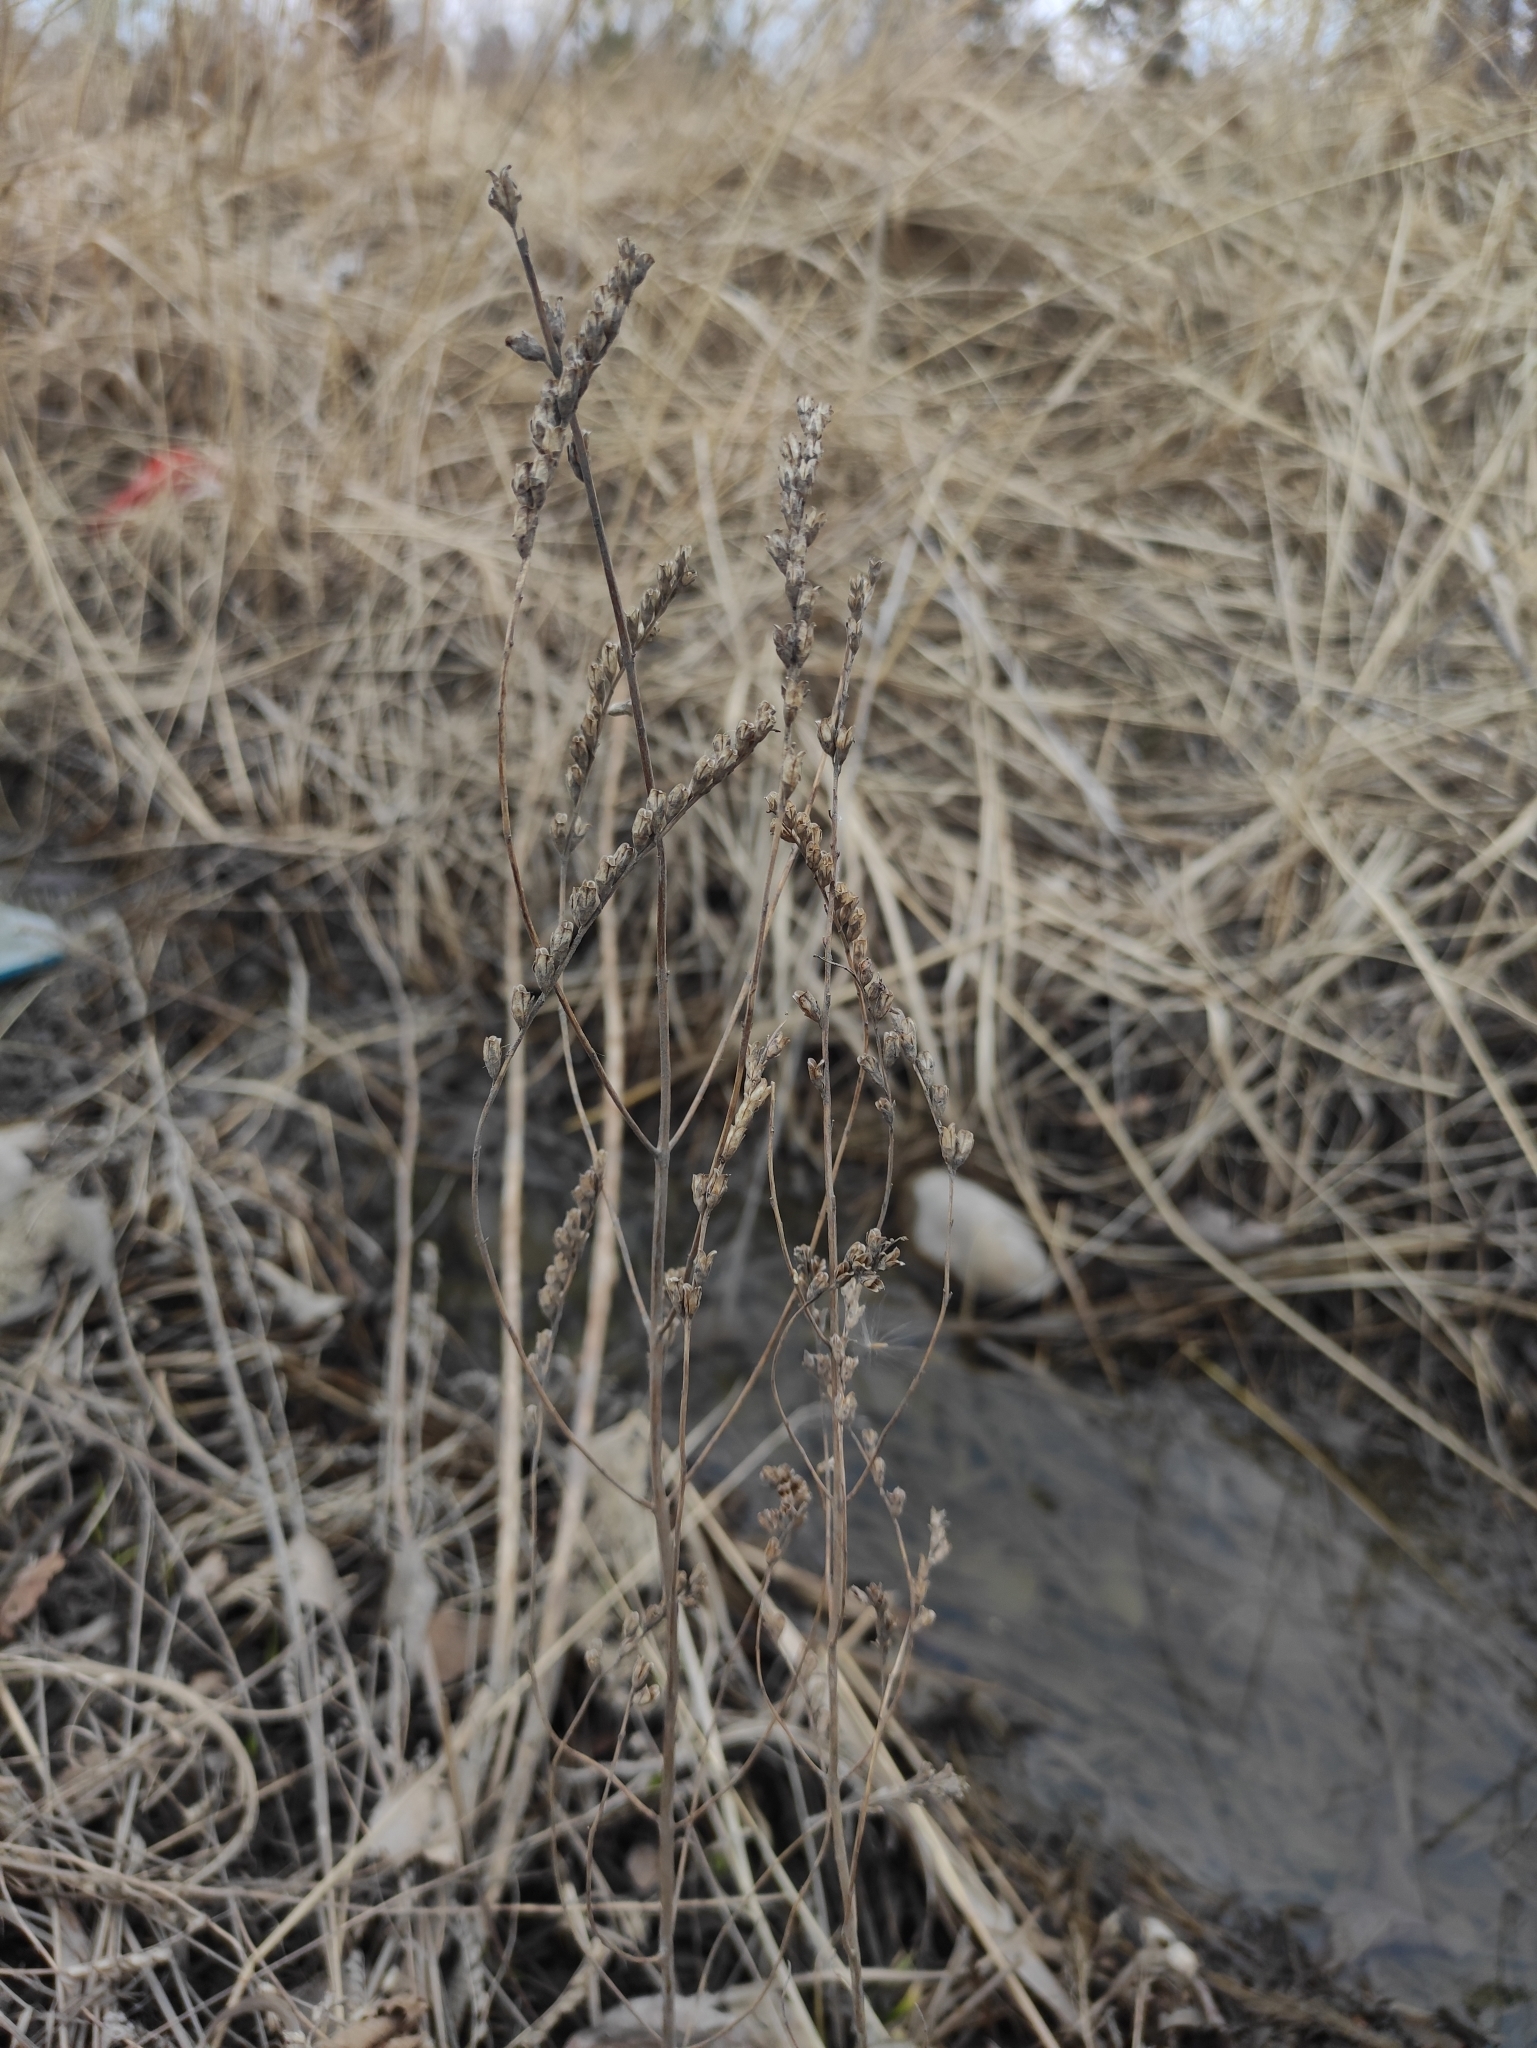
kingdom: Plantae
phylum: Tracheophyta
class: Magnoliopsida
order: Lamiales
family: Orobanchaceae
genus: Odontites
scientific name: Odontites vulgaris
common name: Broomrape
